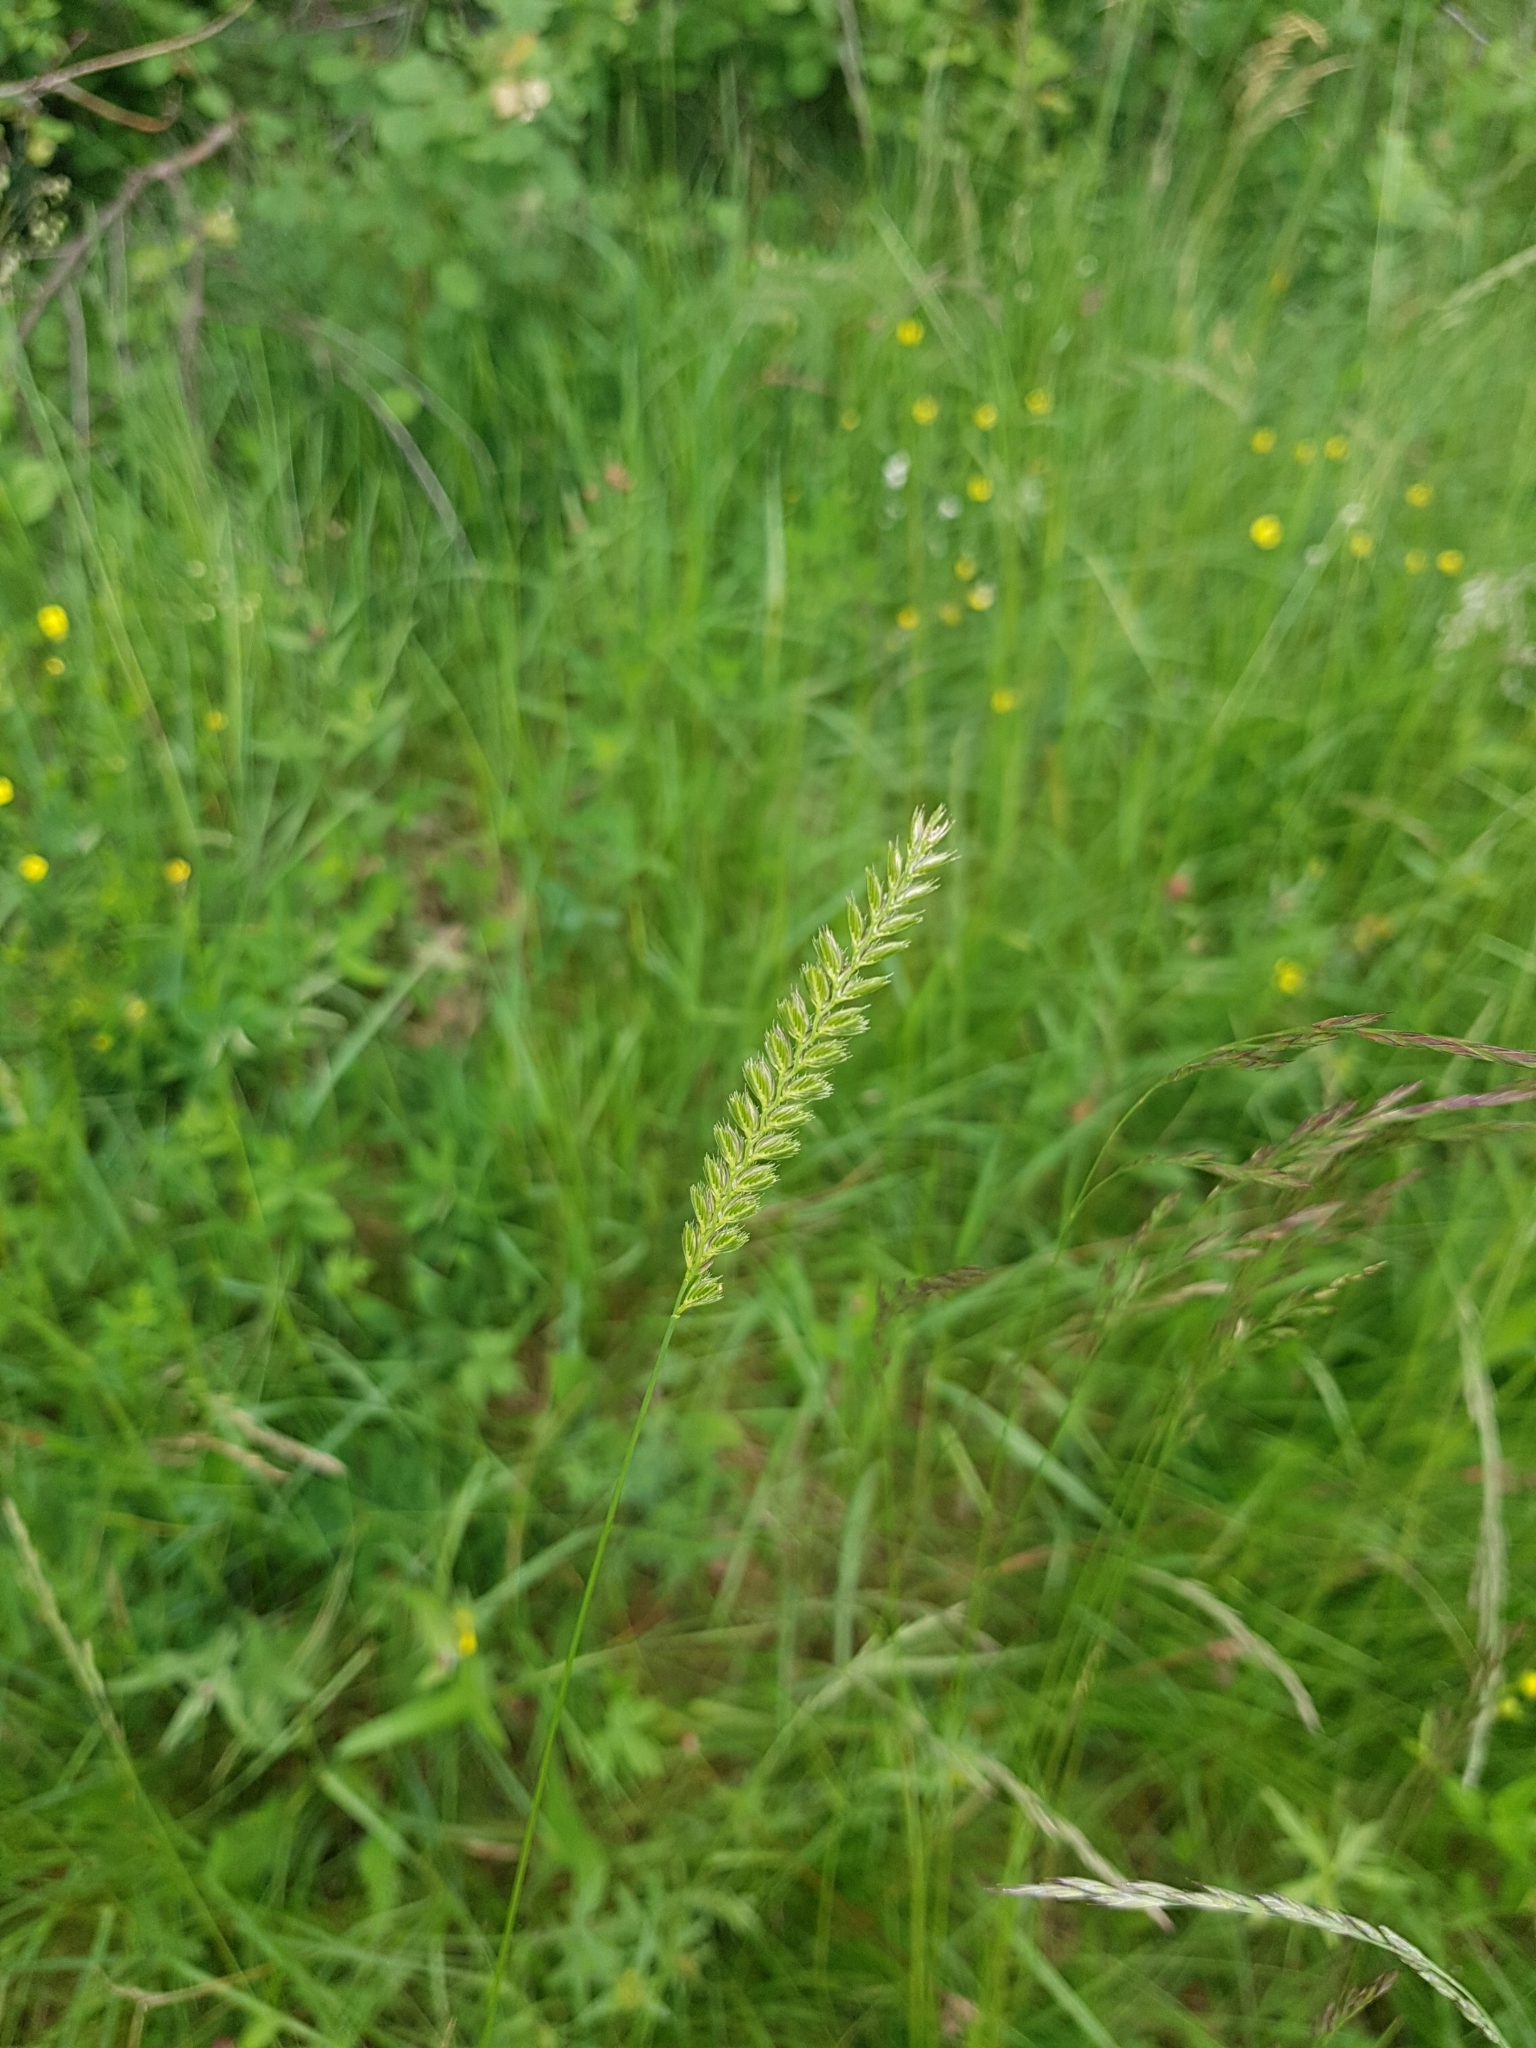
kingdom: Plantae
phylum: Tracheophyta
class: Liliopsida
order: Poales
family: Poaceae
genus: Cynosurus
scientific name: Cynosurus cristatus
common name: Crested dog's-tail
